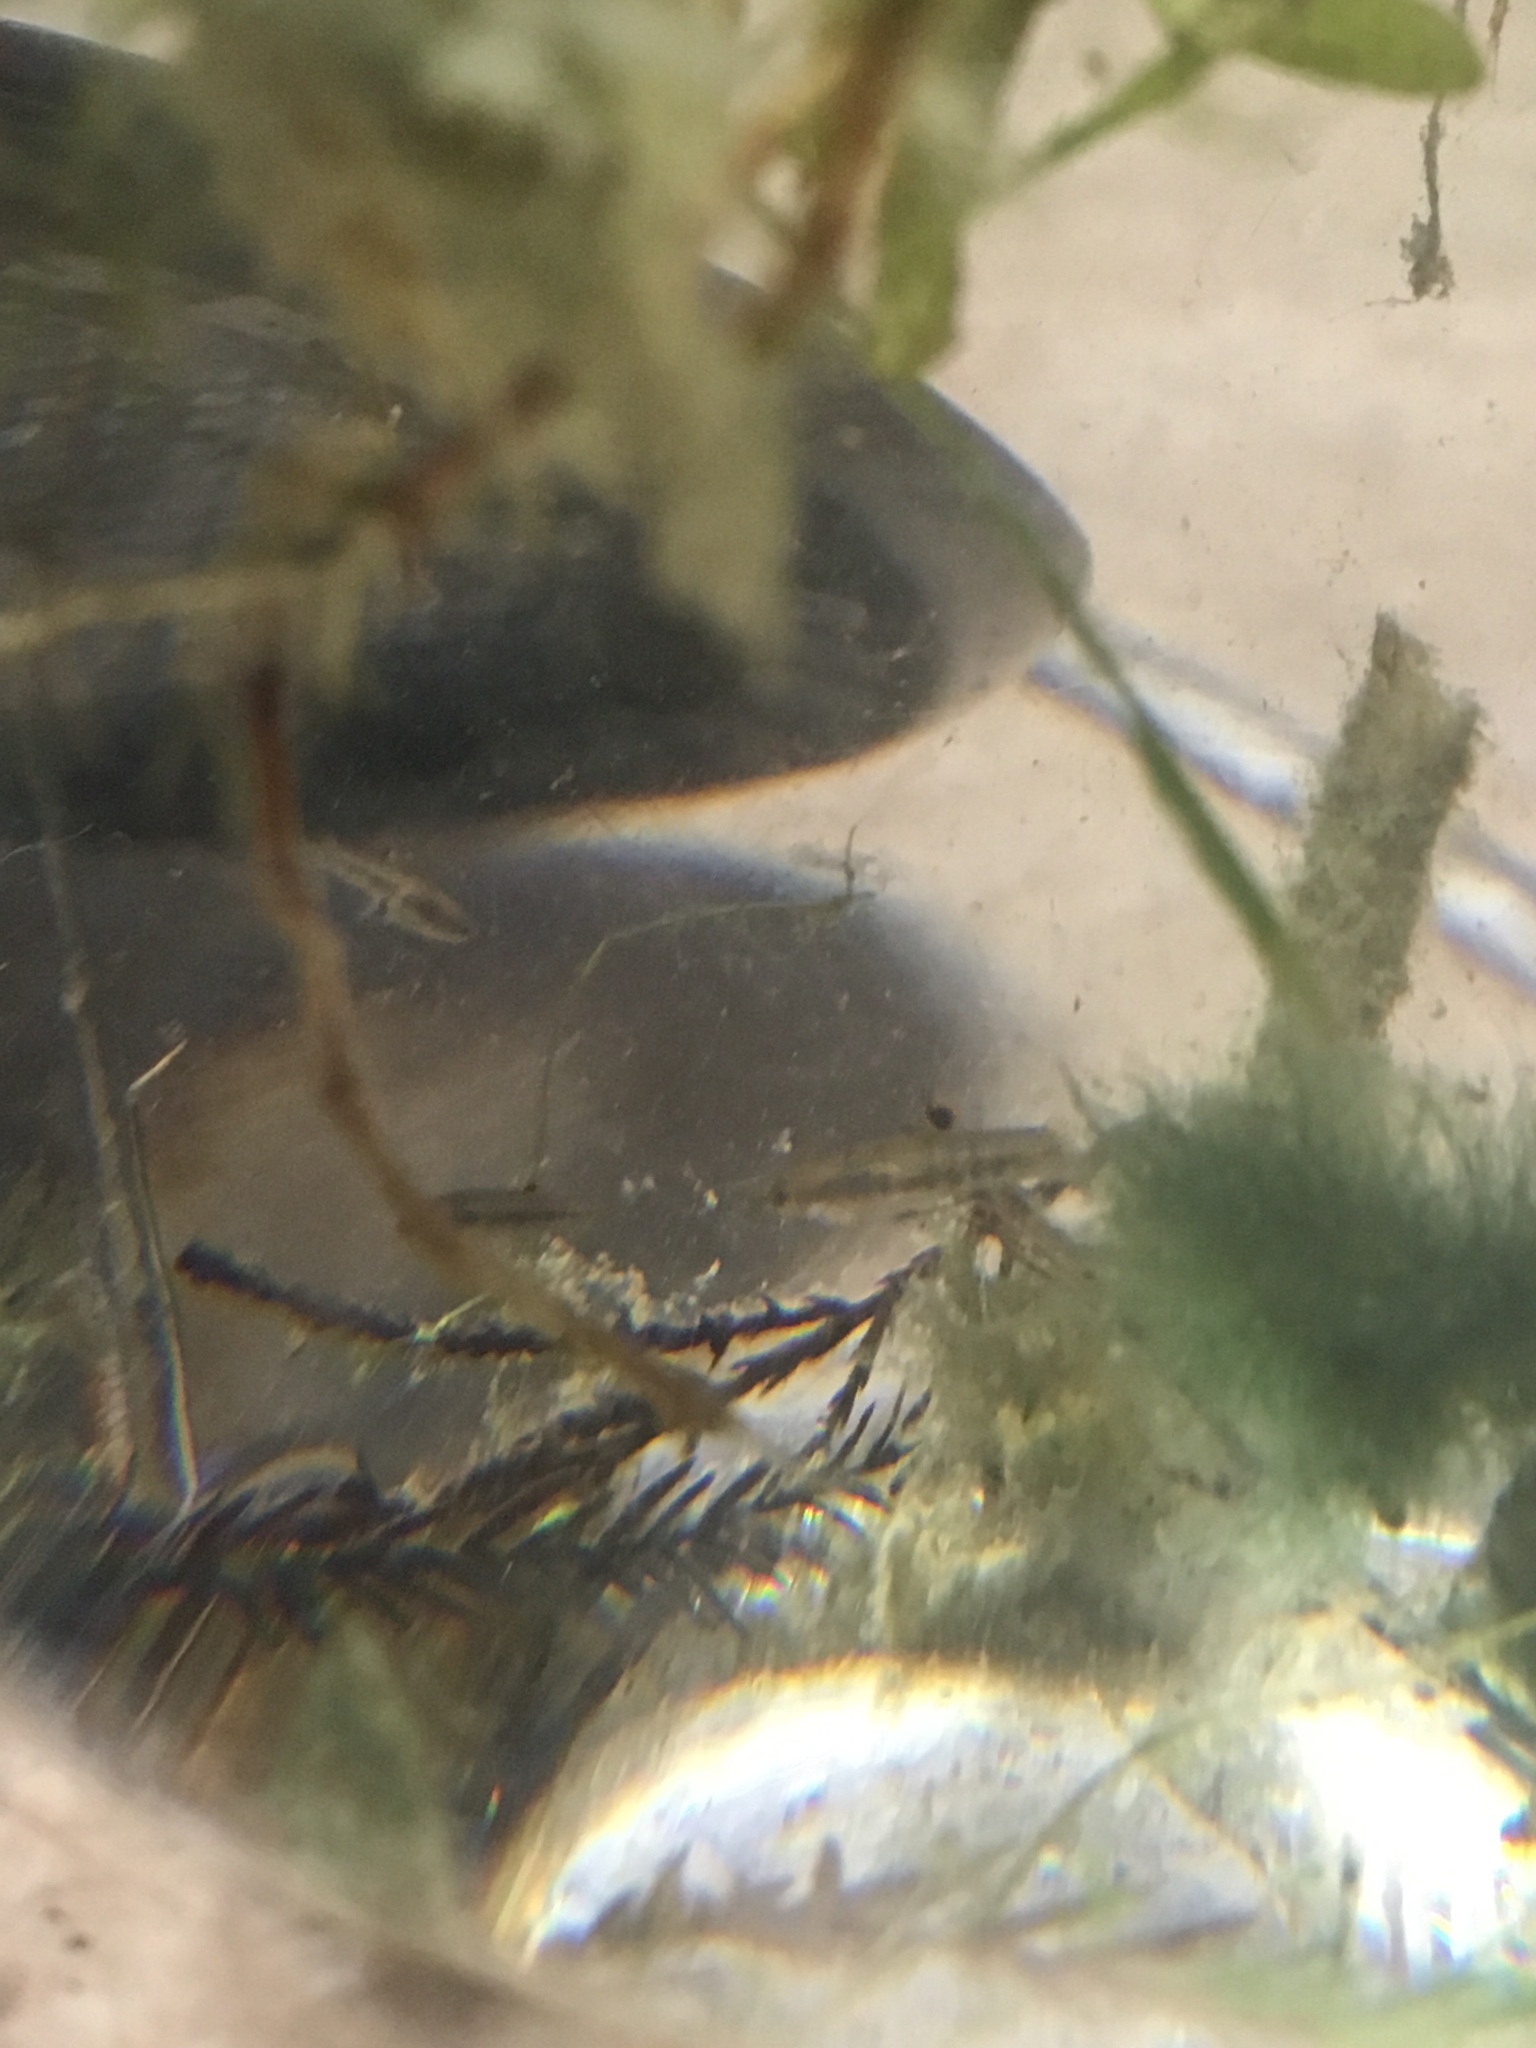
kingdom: Animalia
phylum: Chordata
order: Cyprinodontiformes
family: Poeciliidae
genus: Heterandria
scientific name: Heterandria formosa
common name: Least killifish
